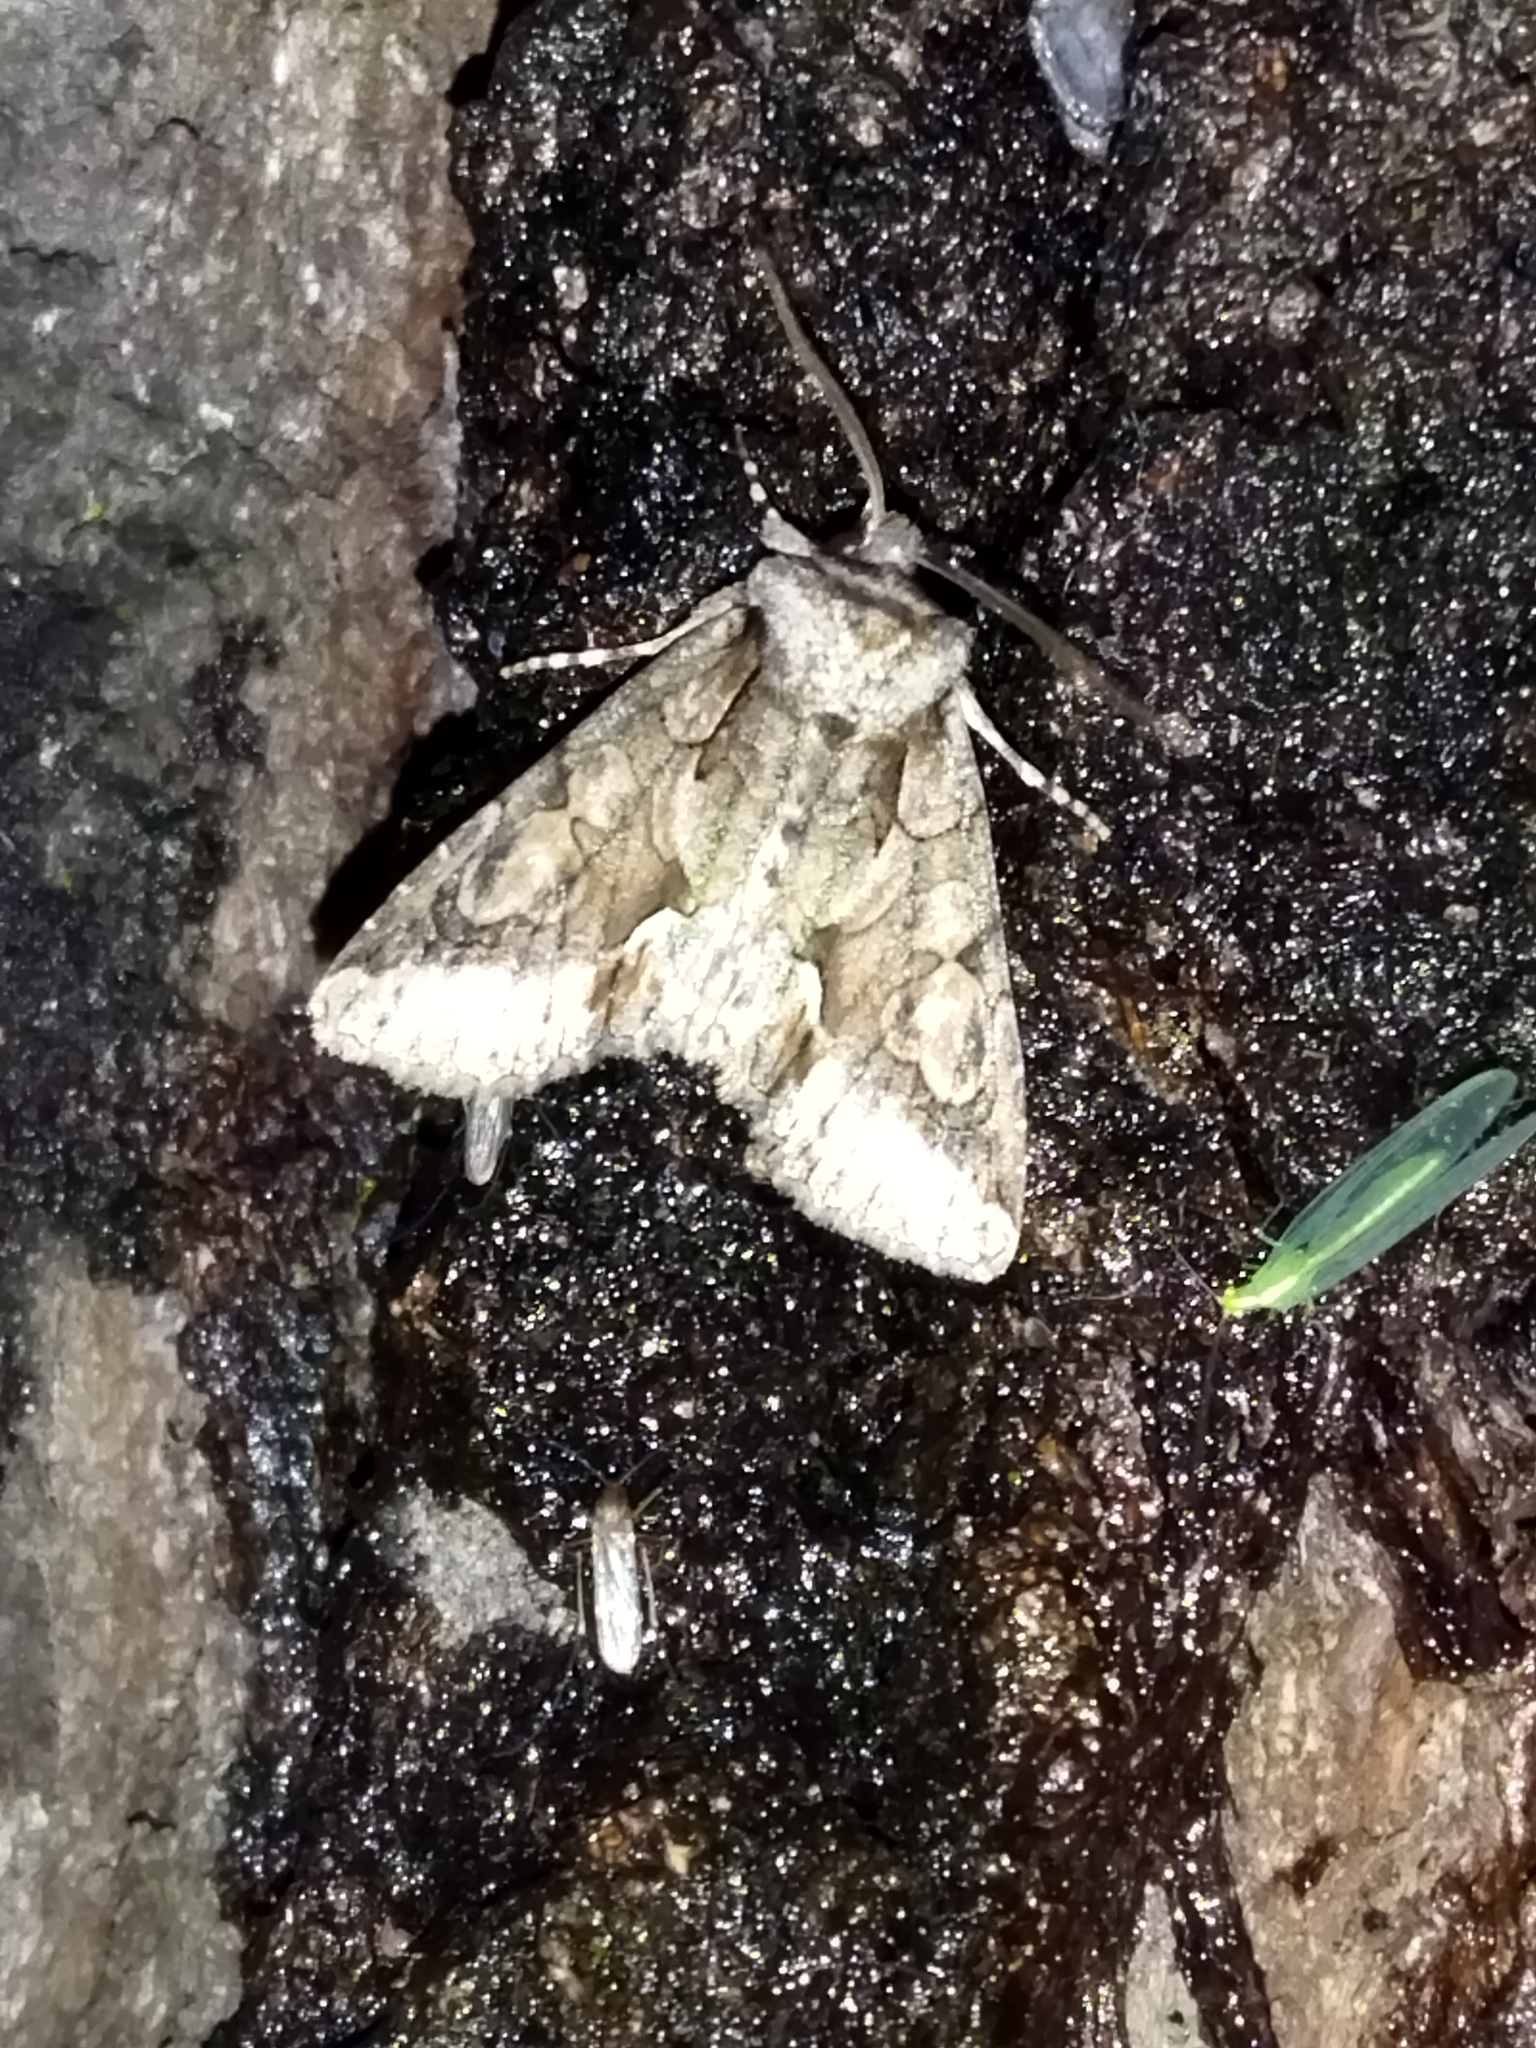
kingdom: Animalia
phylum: Arthropoda
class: Insecta
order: Lepidoptera
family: Noctuidae
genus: Allophyes
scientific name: Allophyes oxyacanthae
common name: Green-brindled crescent
